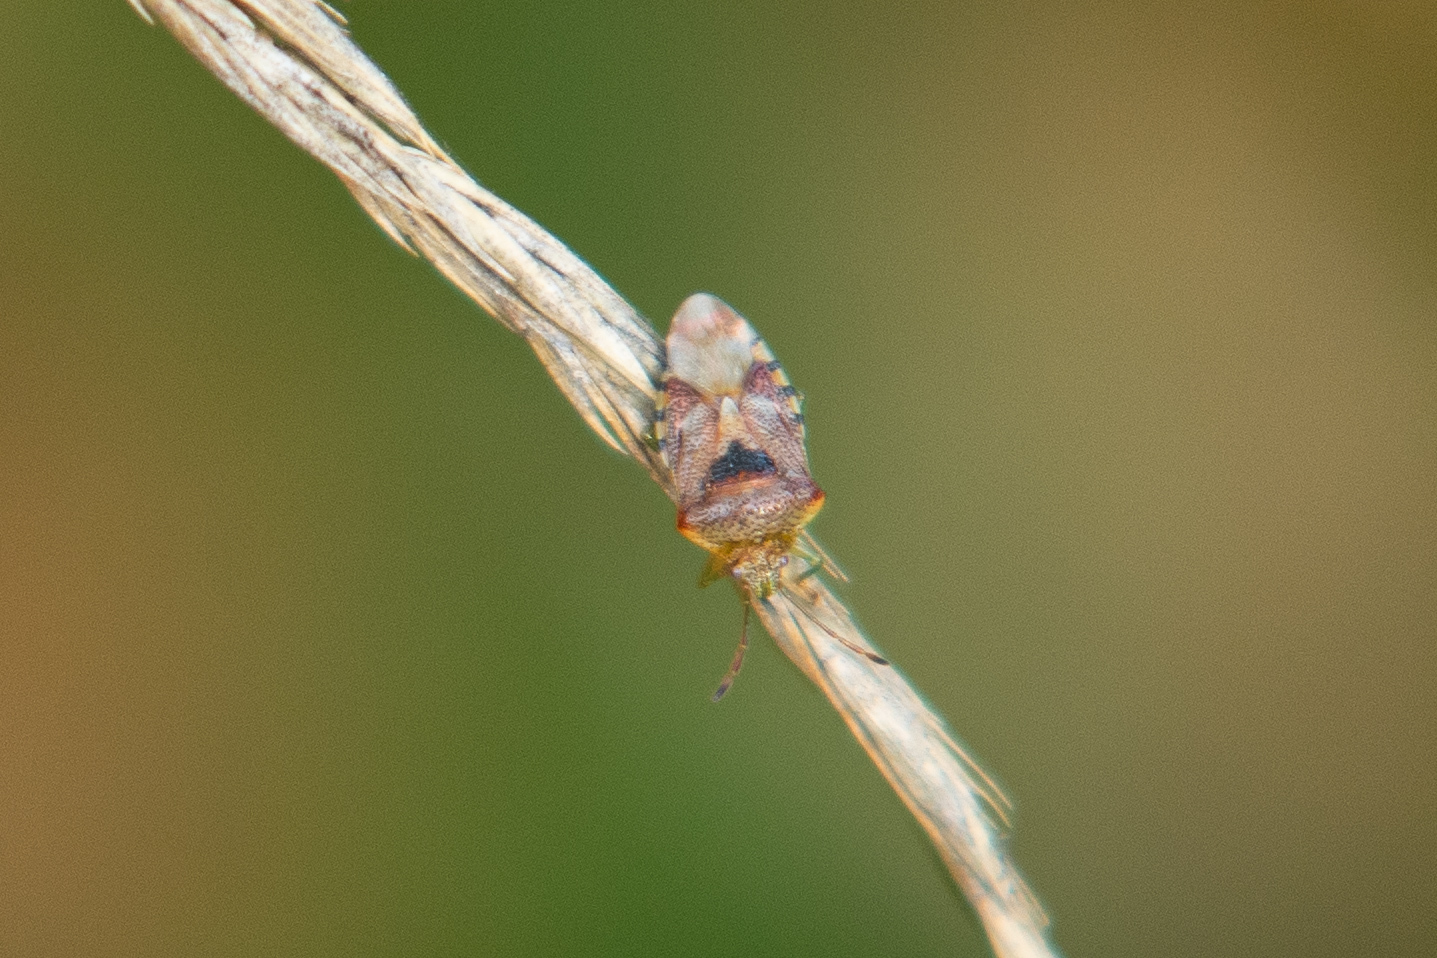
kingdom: Animalia
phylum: Arthropoda
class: Insecta
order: Hemiptera
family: Acanthosomatidae
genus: Elasmucha
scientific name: Elasmucha grisea
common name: Parent bug
